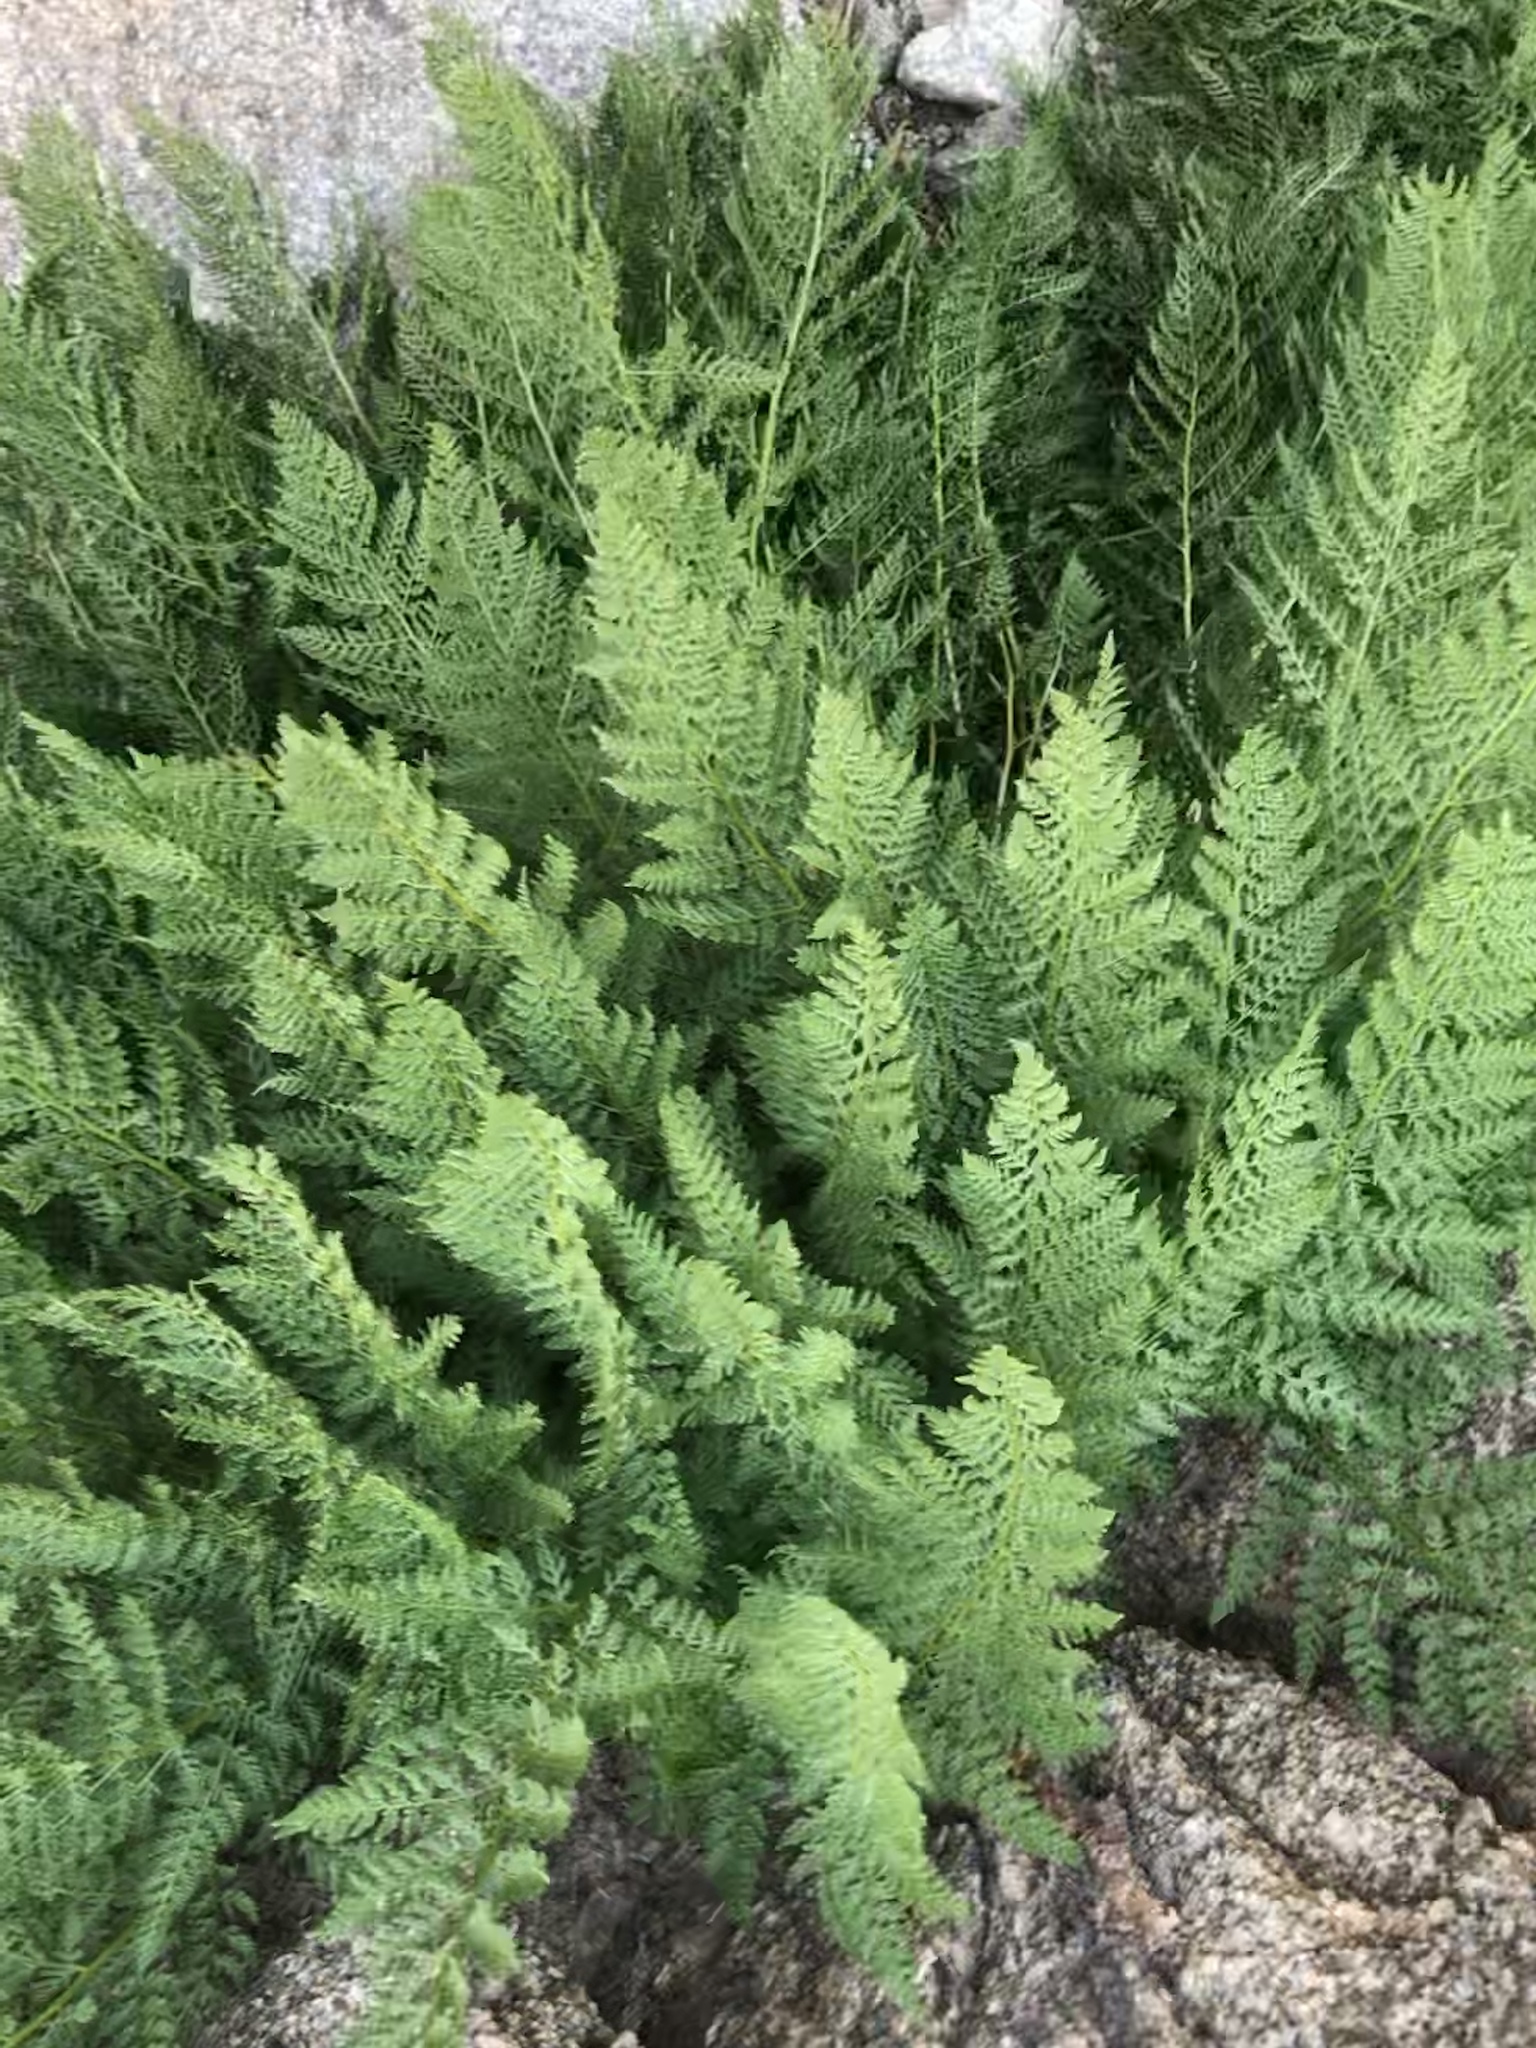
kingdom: Plantae
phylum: Tracheophyta
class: Polypodiopsida
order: Polypodiales
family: Athyriaceae
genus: Athyrium
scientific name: Athyrium americanum
